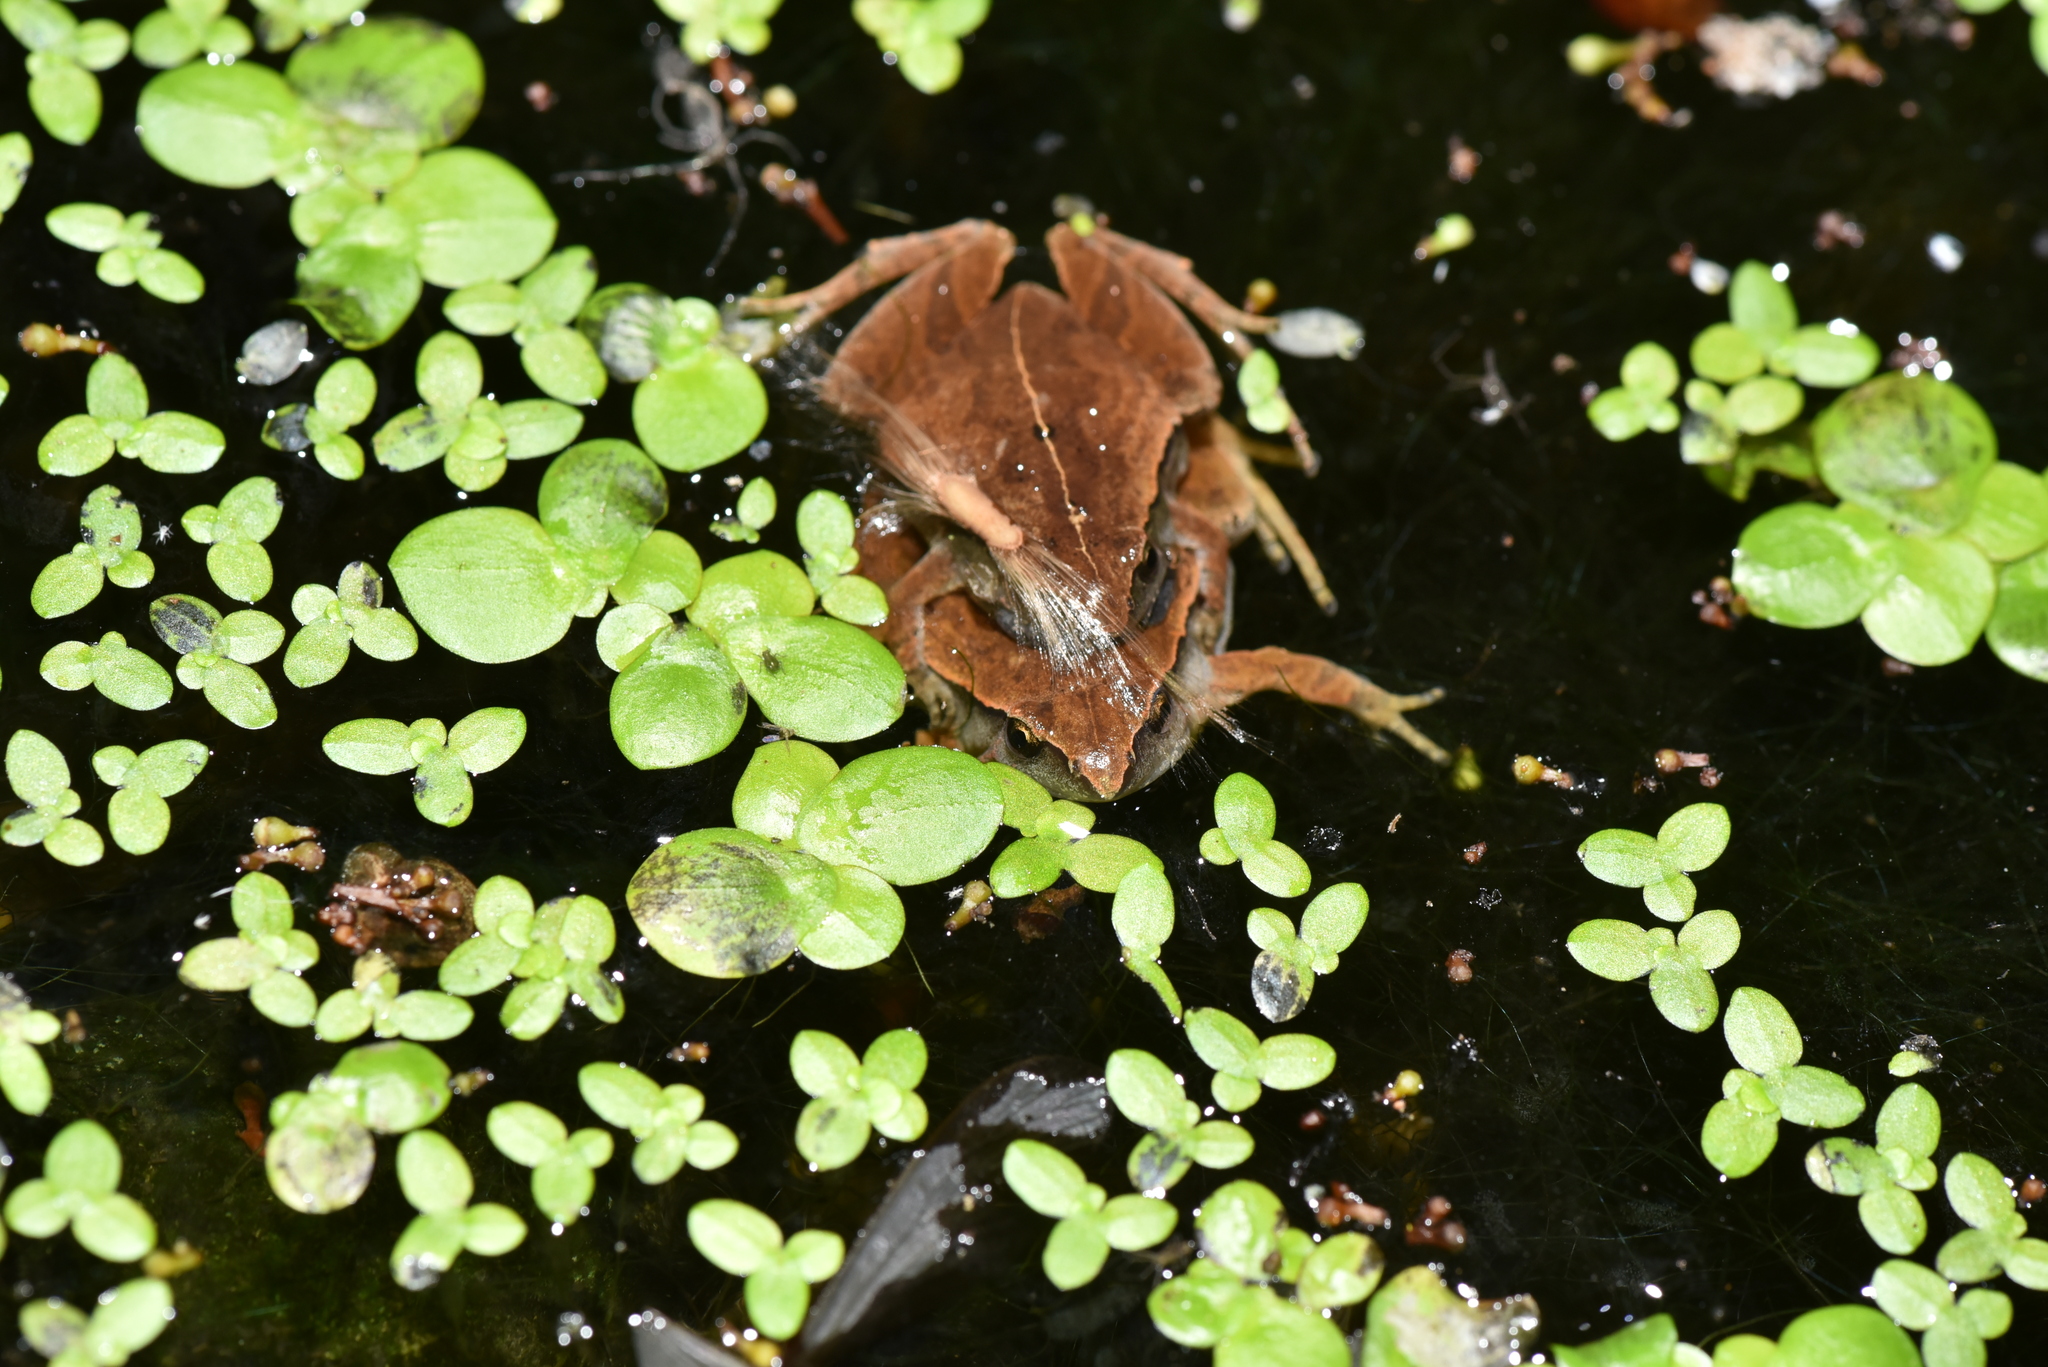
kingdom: Animalia
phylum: Chordata
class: Amphibia
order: Anura
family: Microhylidae
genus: Microhyla
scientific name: Microhyla heymonsi
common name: Taiwan rice frog,dark sided chorus frog
